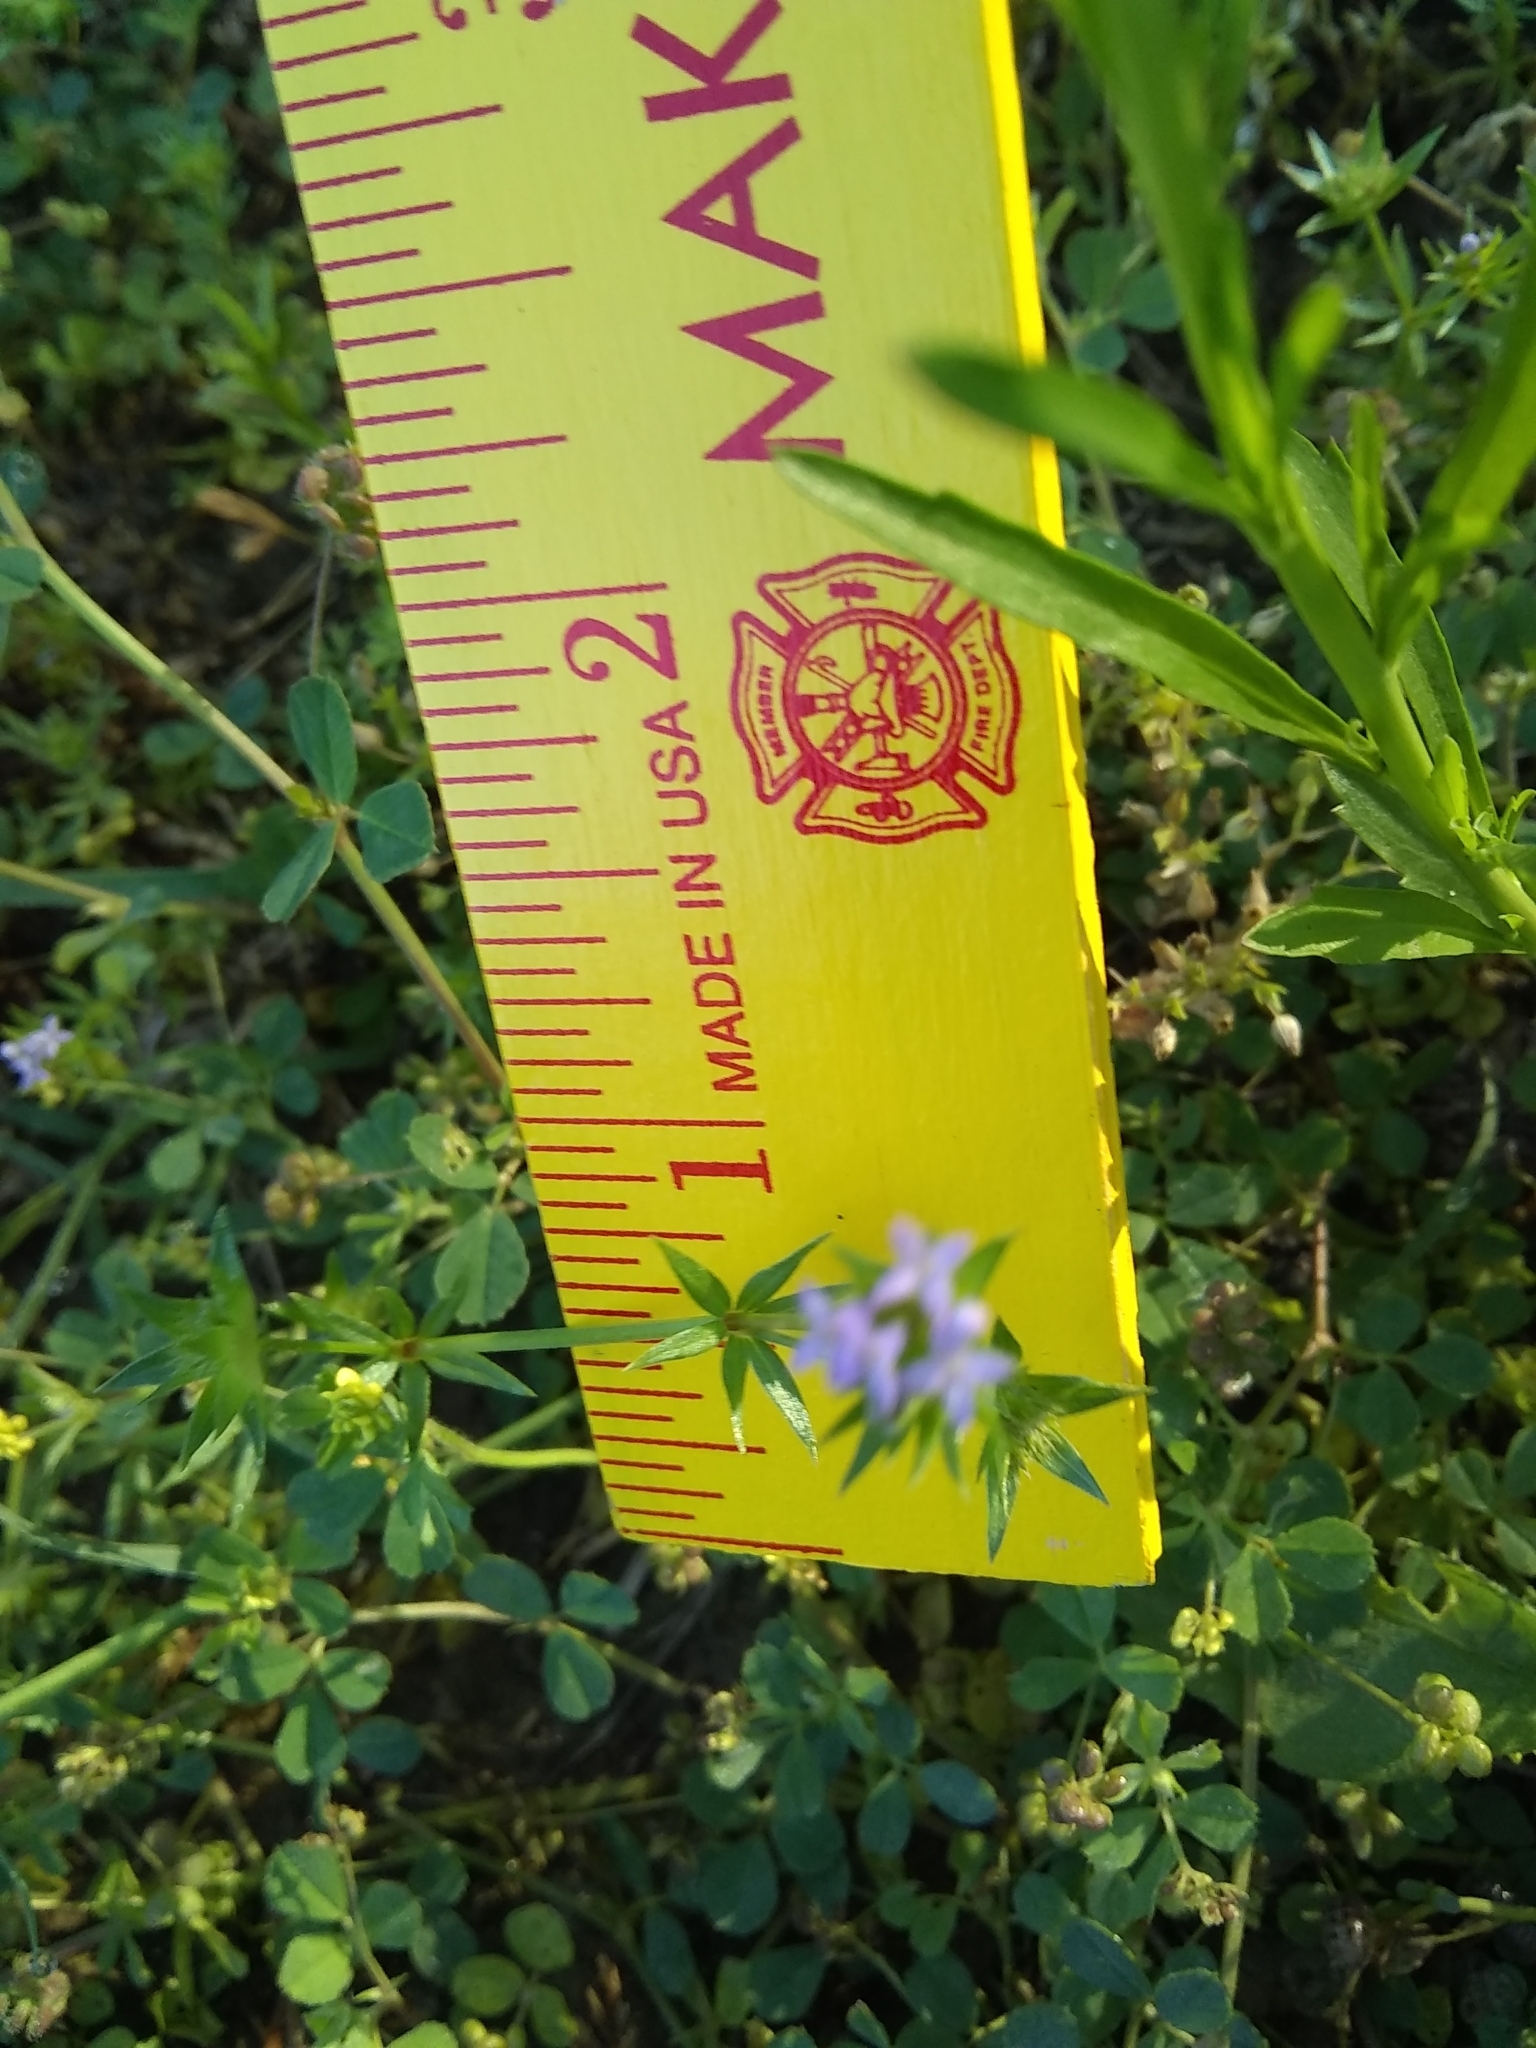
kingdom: Plantae
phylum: Tracheophyta
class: Magnoliopsida
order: Gentianales
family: Rubiaceae
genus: Sherardia
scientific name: Sherardia arvensis
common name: Field madder
